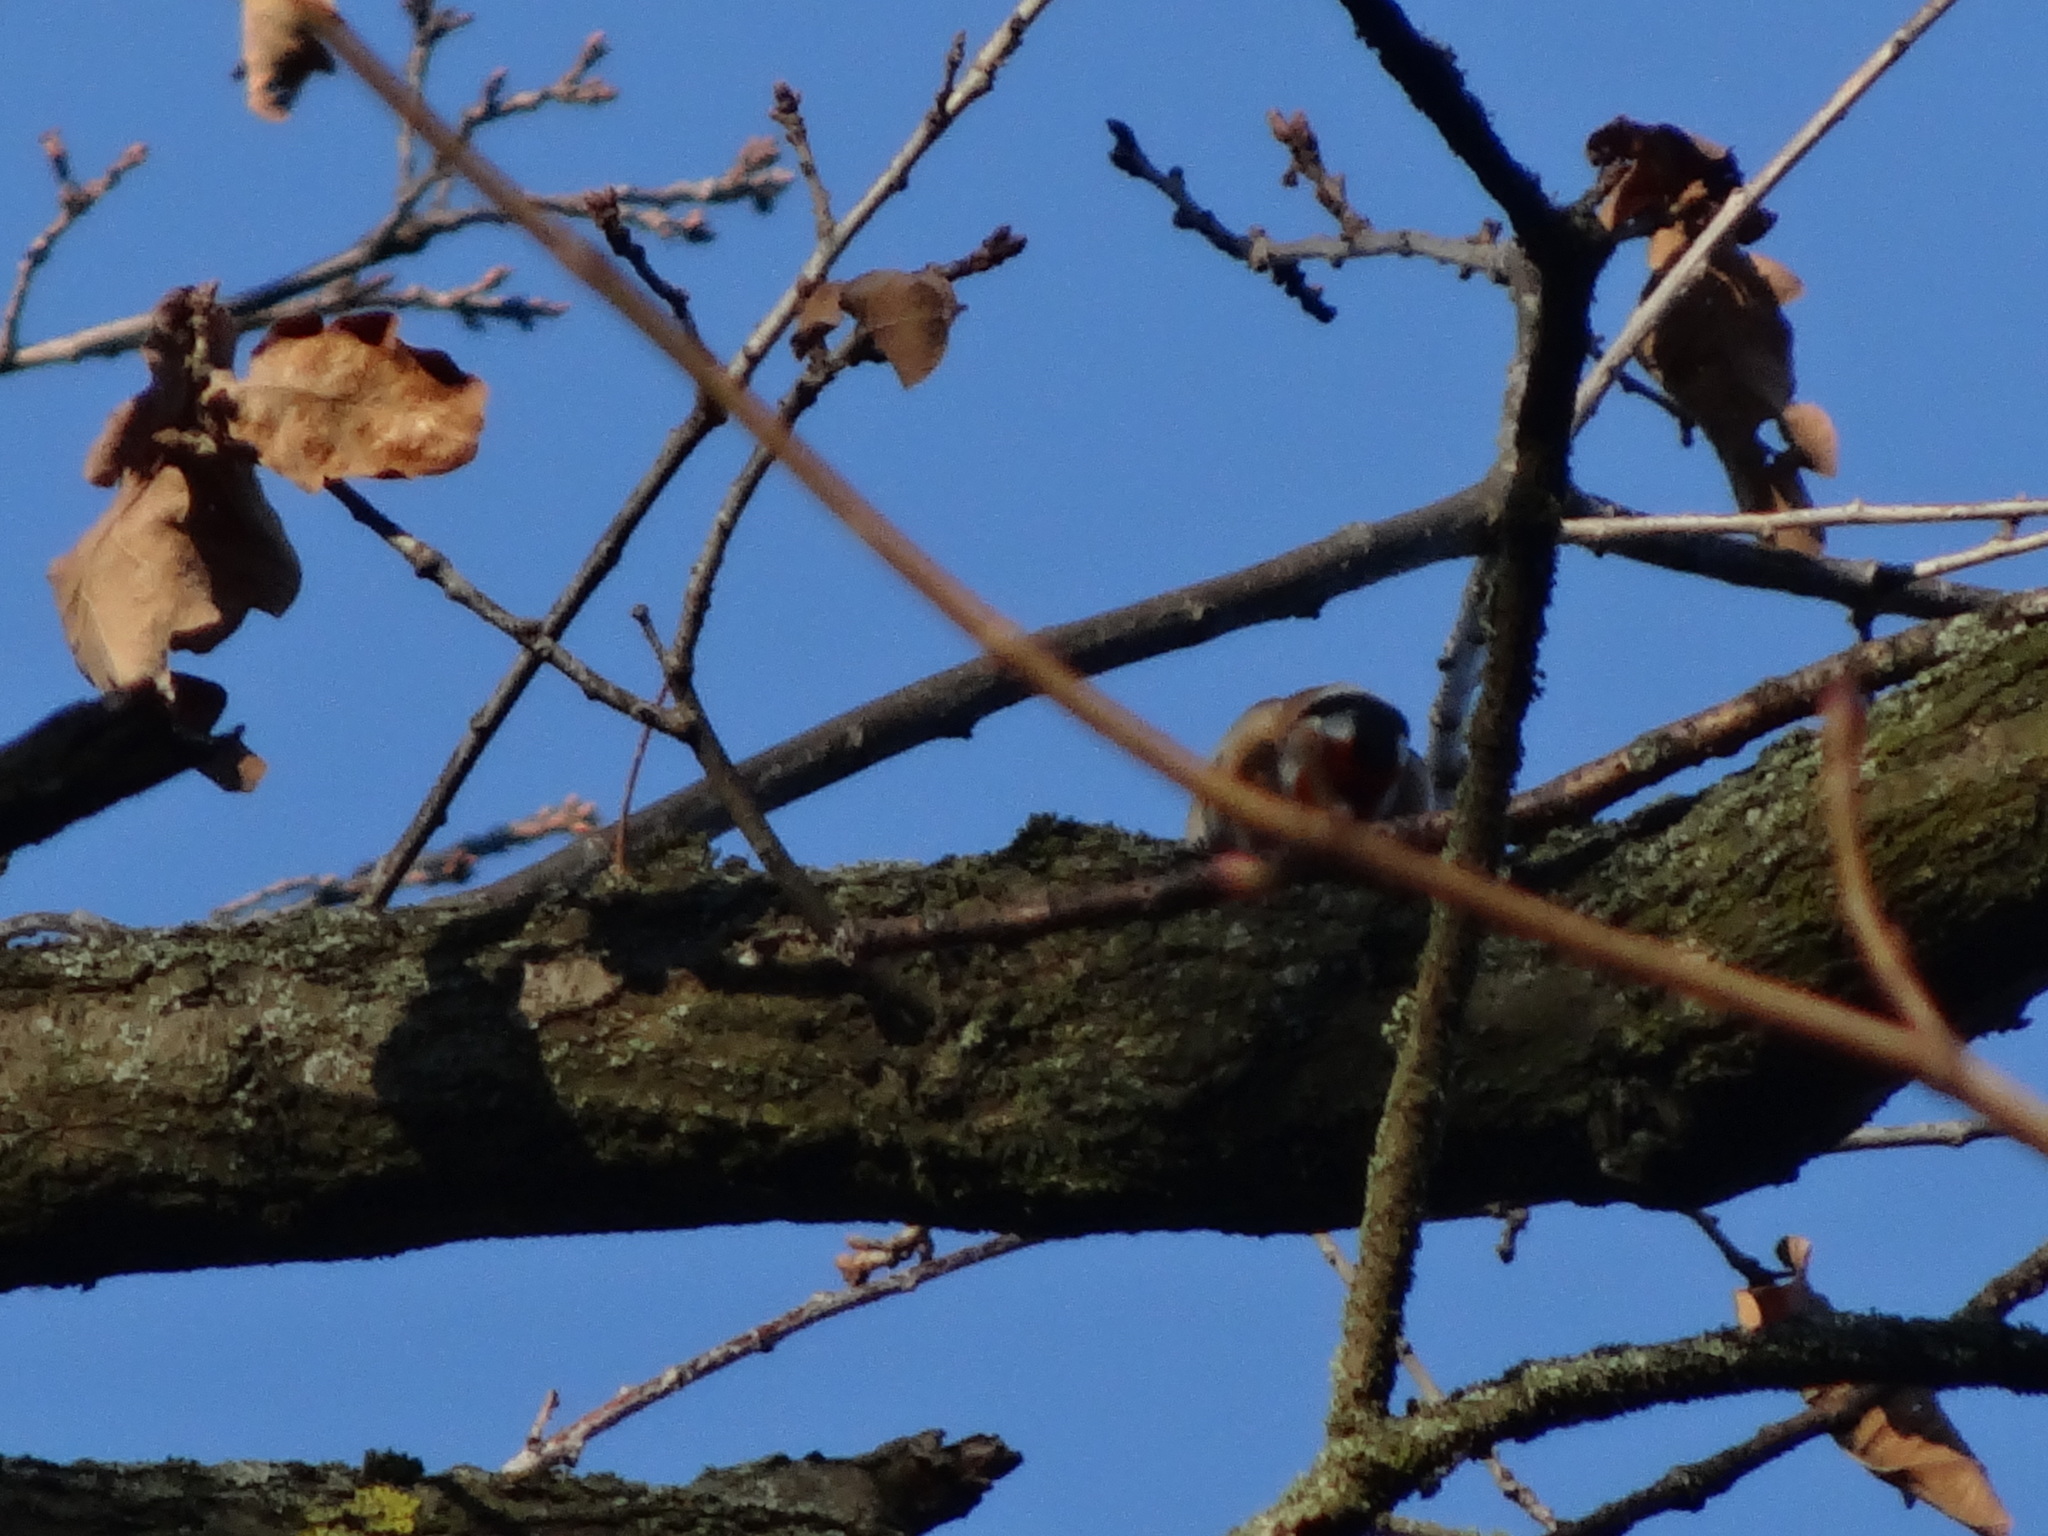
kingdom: Animalia
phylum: Chordata
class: Aves
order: Passeriformes
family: Fringillidae
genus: Carduelis
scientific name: Carduelis carduelis
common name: European goldfinch
